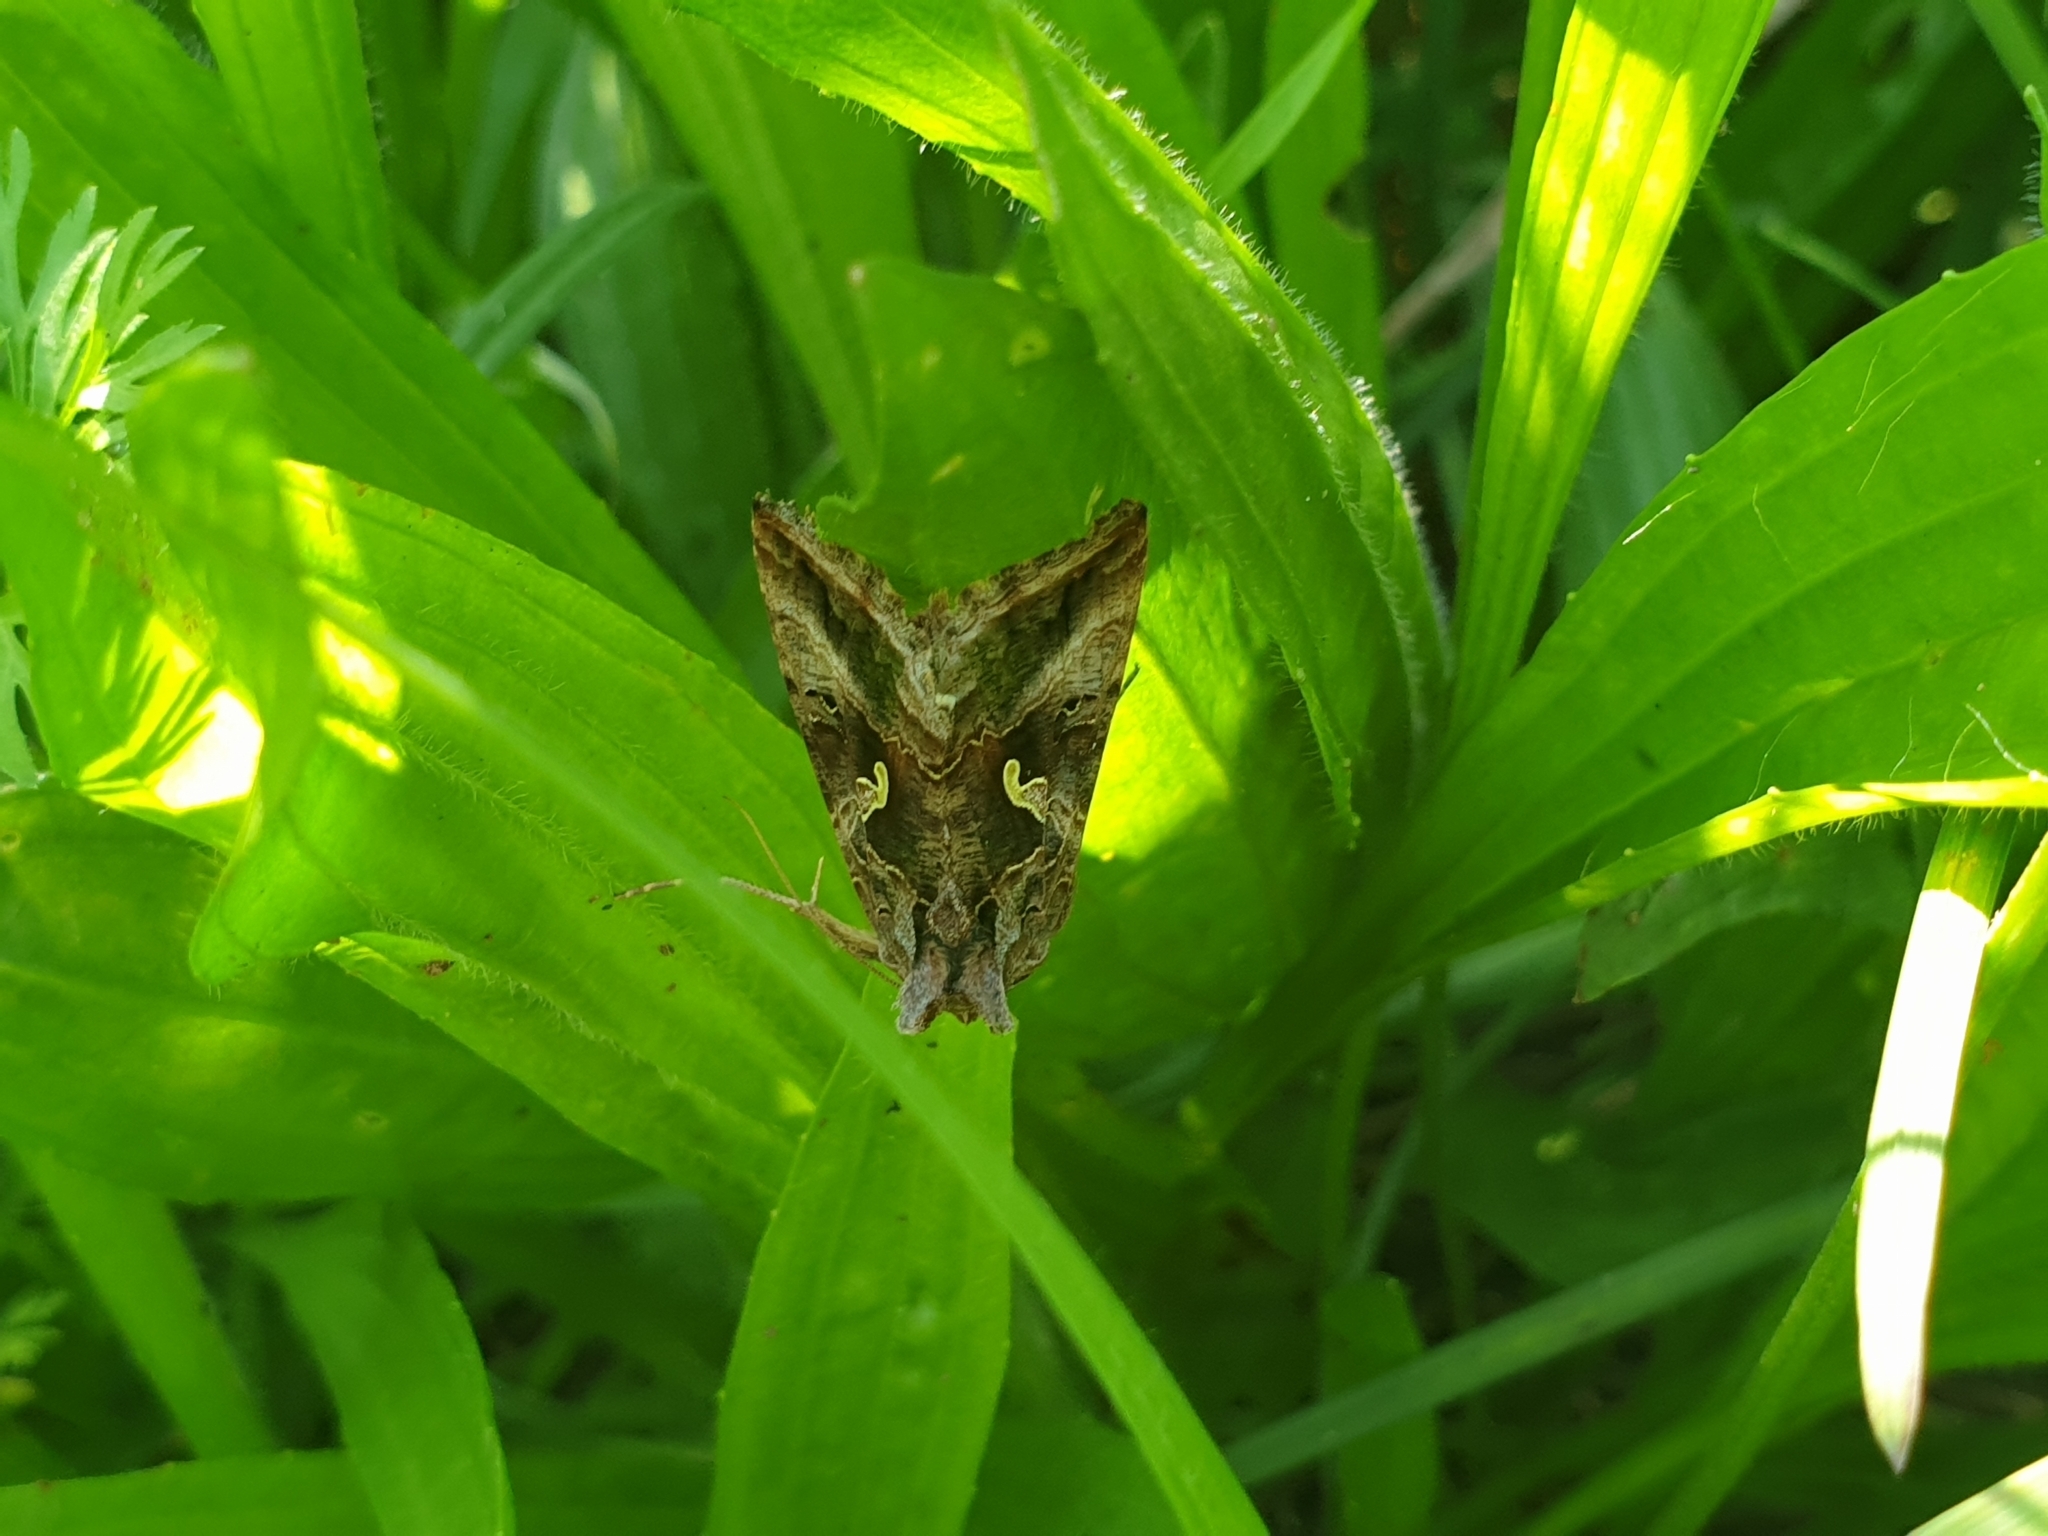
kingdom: Animalia
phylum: Arthropoda
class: Insecta
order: Lepidoptera
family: Noctuidae
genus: Autographa
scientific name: Autographa gamma
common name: Silver y
